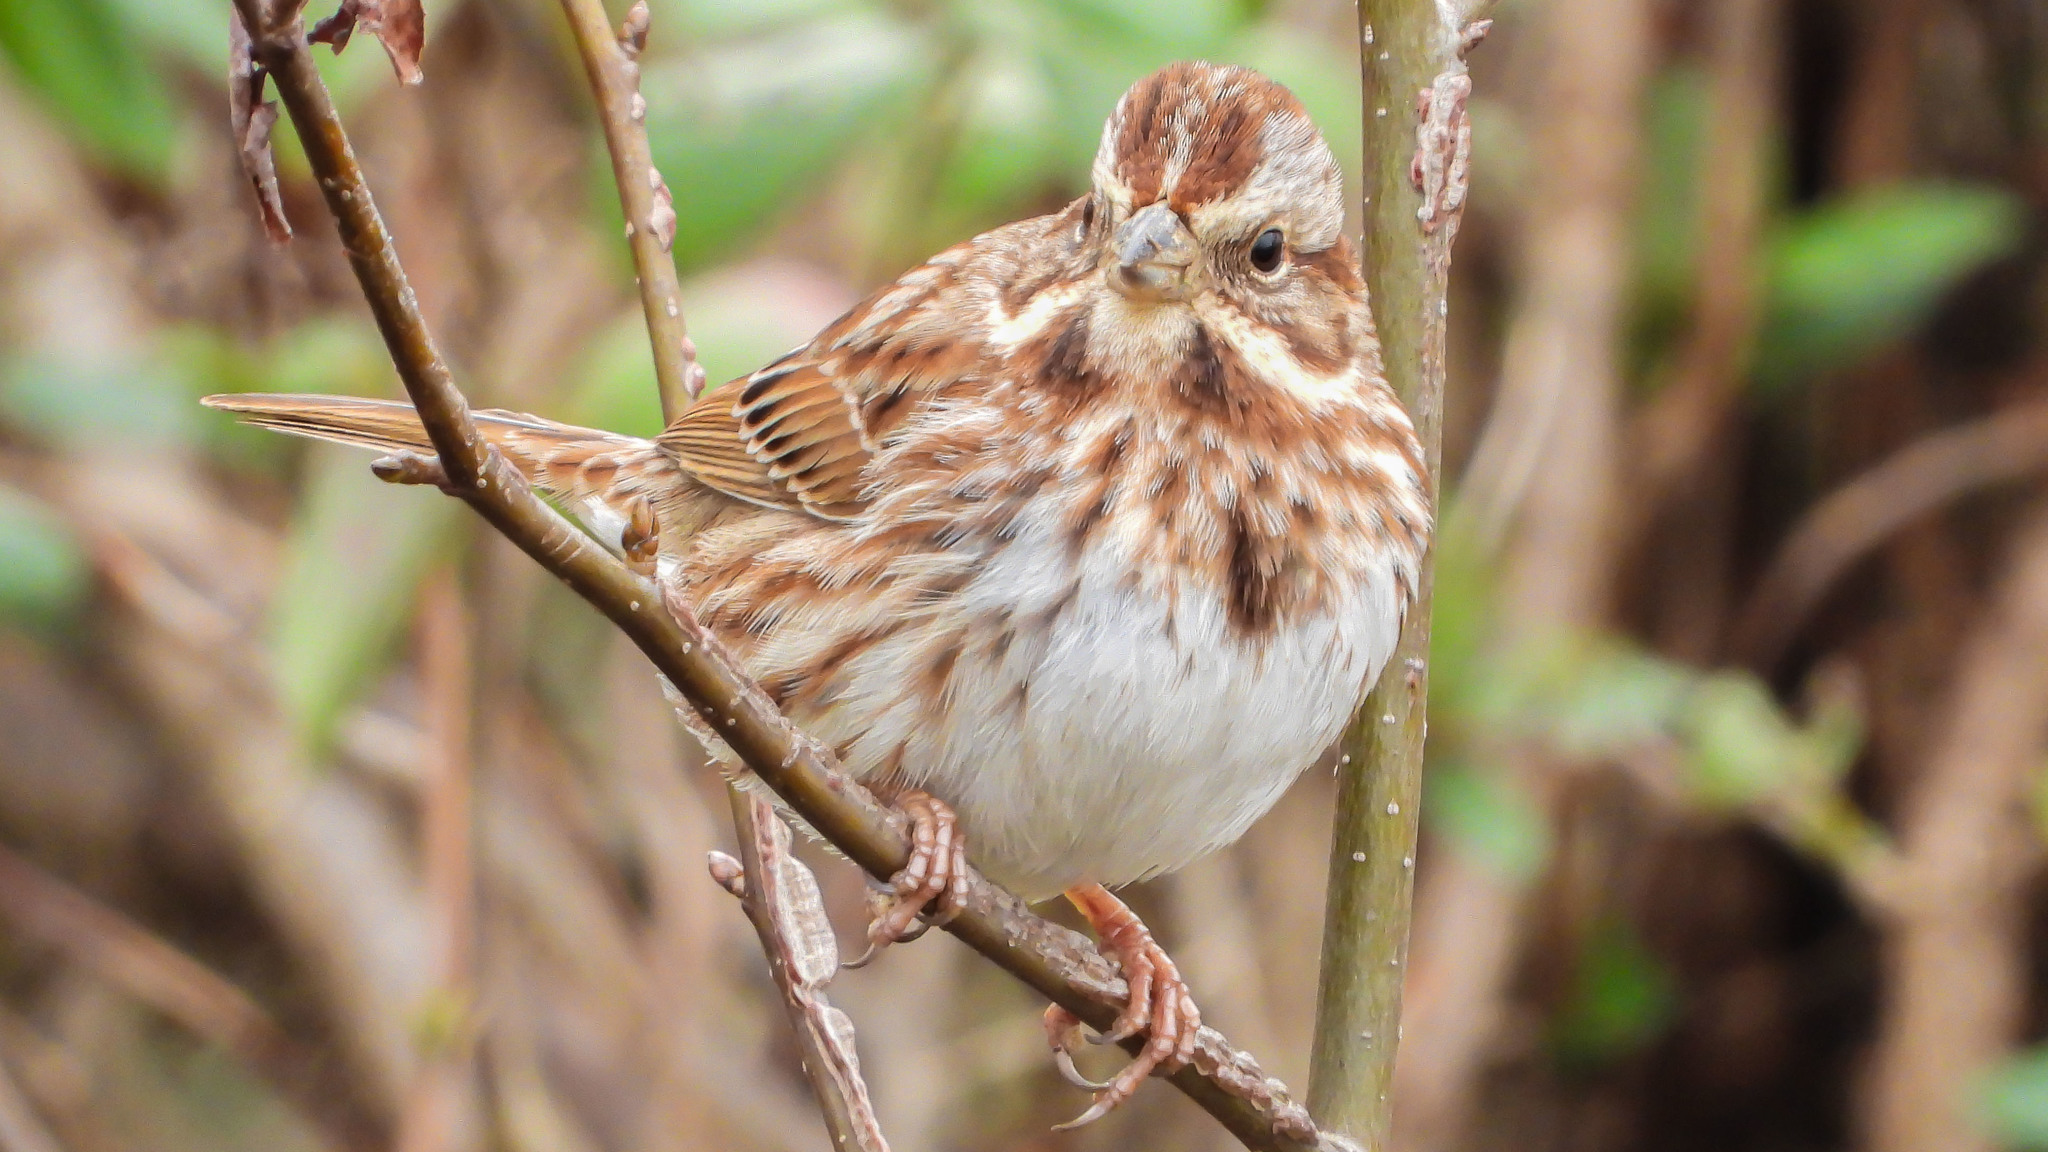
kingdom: Animalia
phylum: Chordata
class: Aves
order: Passeriformes
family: Passerellidae
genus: Melospiza
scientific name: Melospiza melodia
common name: Song sparrow
